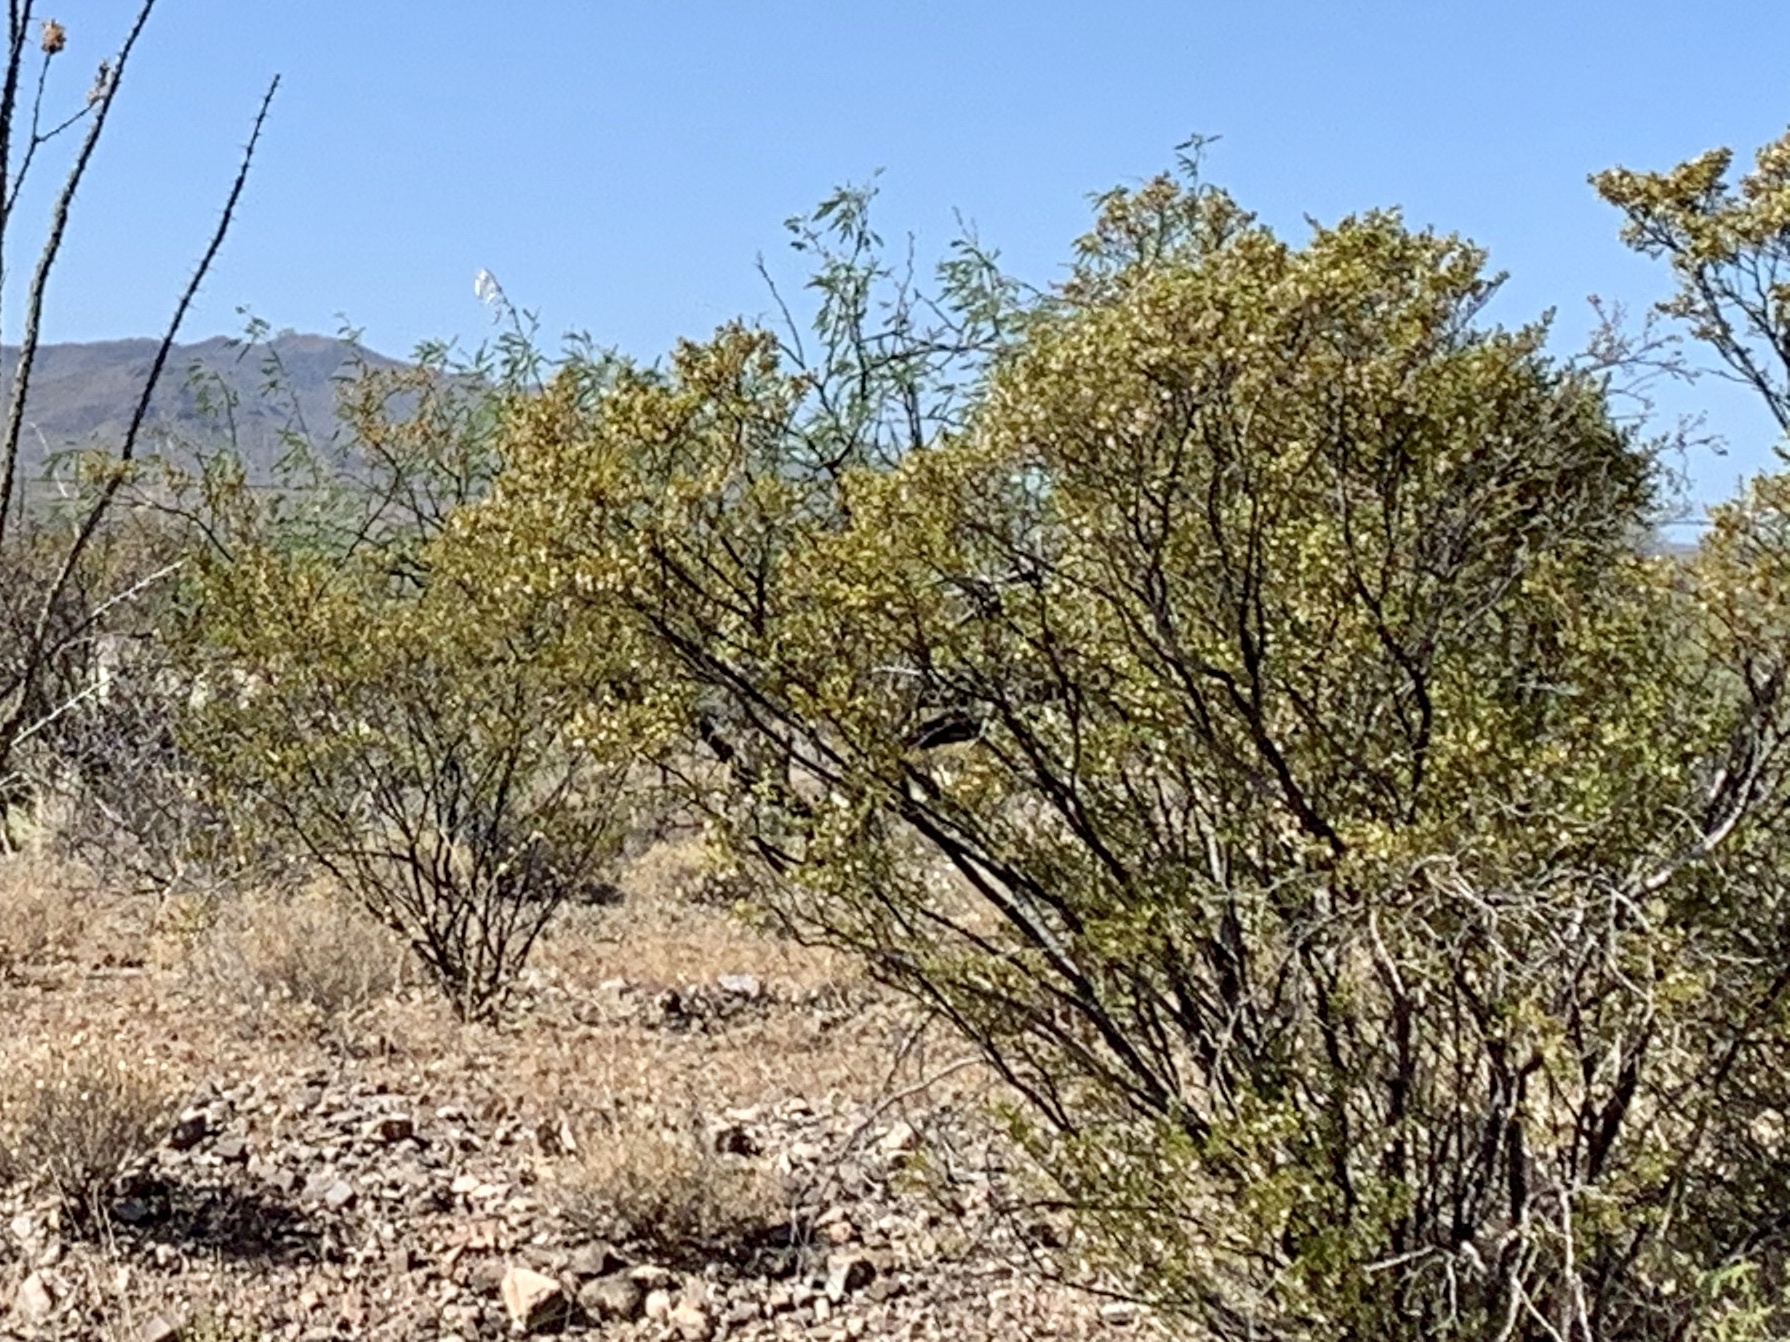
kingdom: Plantae
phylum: Tracheophyta
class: Magnoliopsida
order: Zygophyllales
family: Zygophyllaceae
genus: Larrea
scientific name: Larrea tridentata
